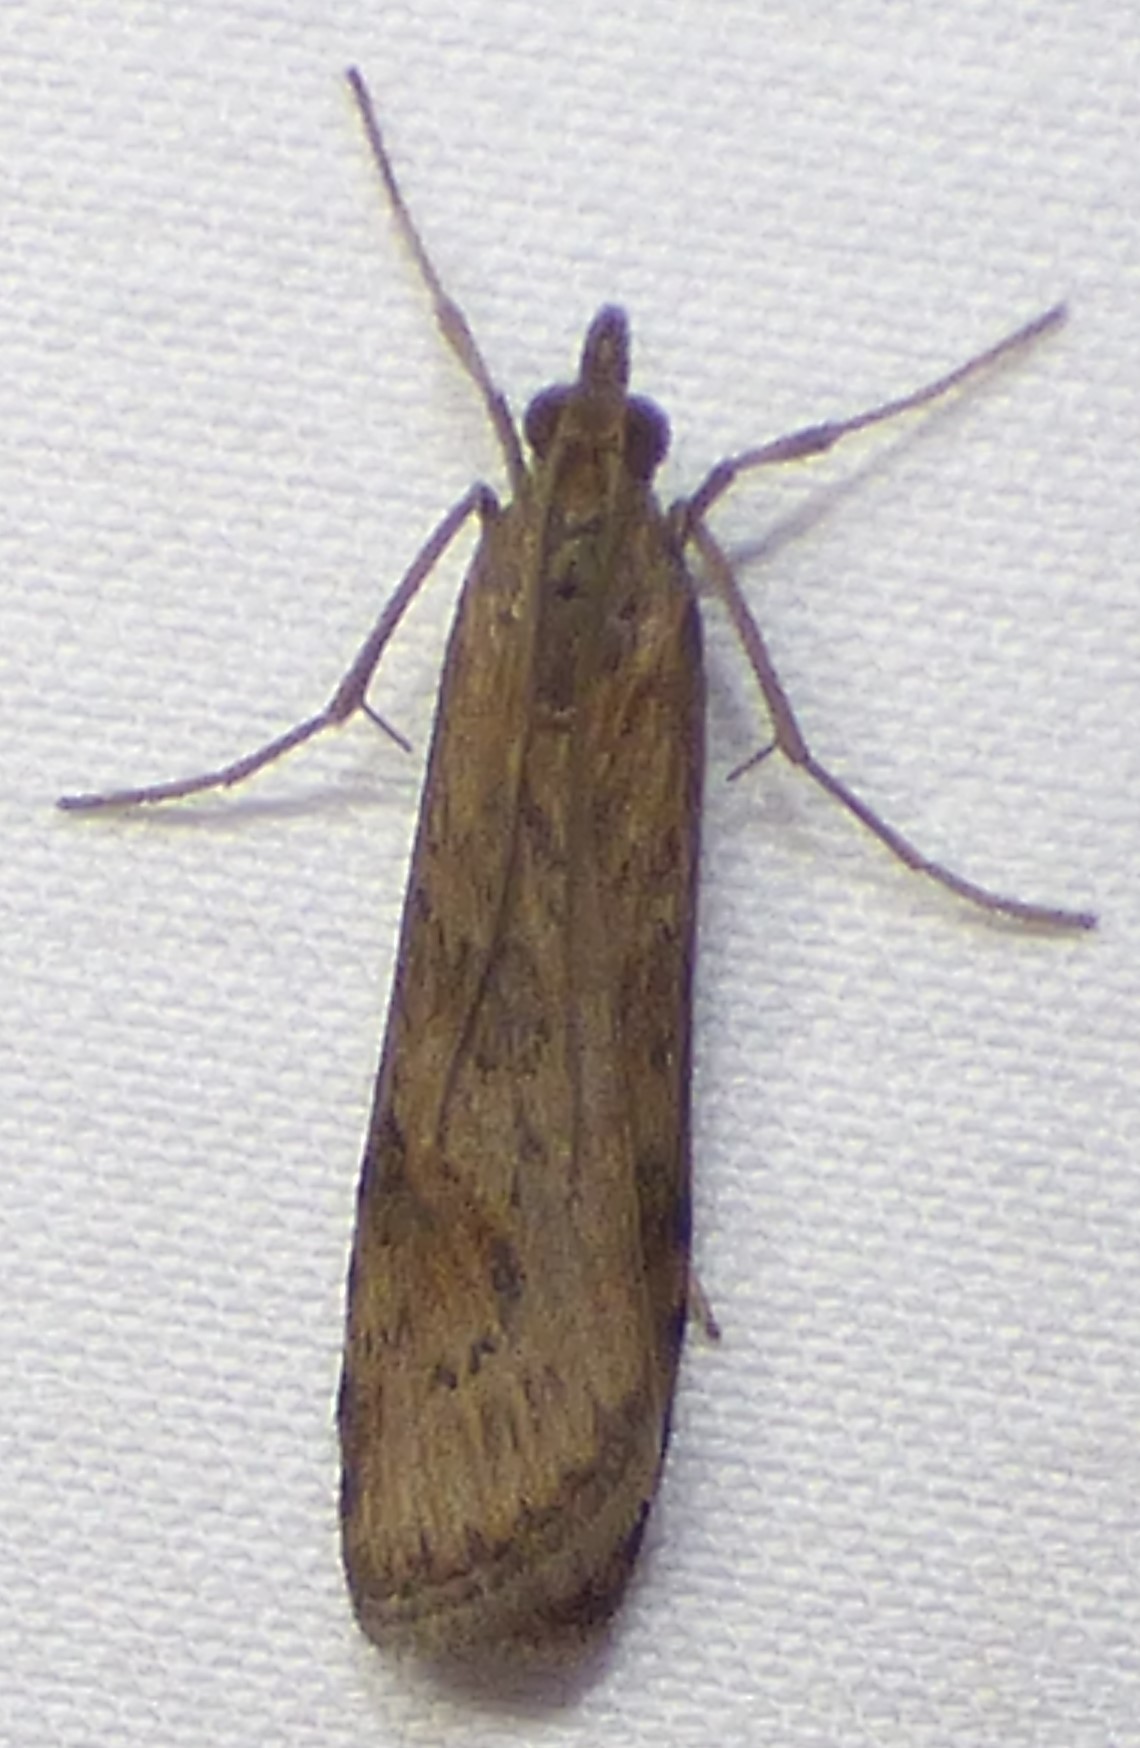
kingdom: Animalia
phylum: Arthropoda
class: Insecta
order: Lepidoptera
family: Crambidae
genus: Nomophila
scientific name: Nomophila nearctica
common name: American rush veneer
